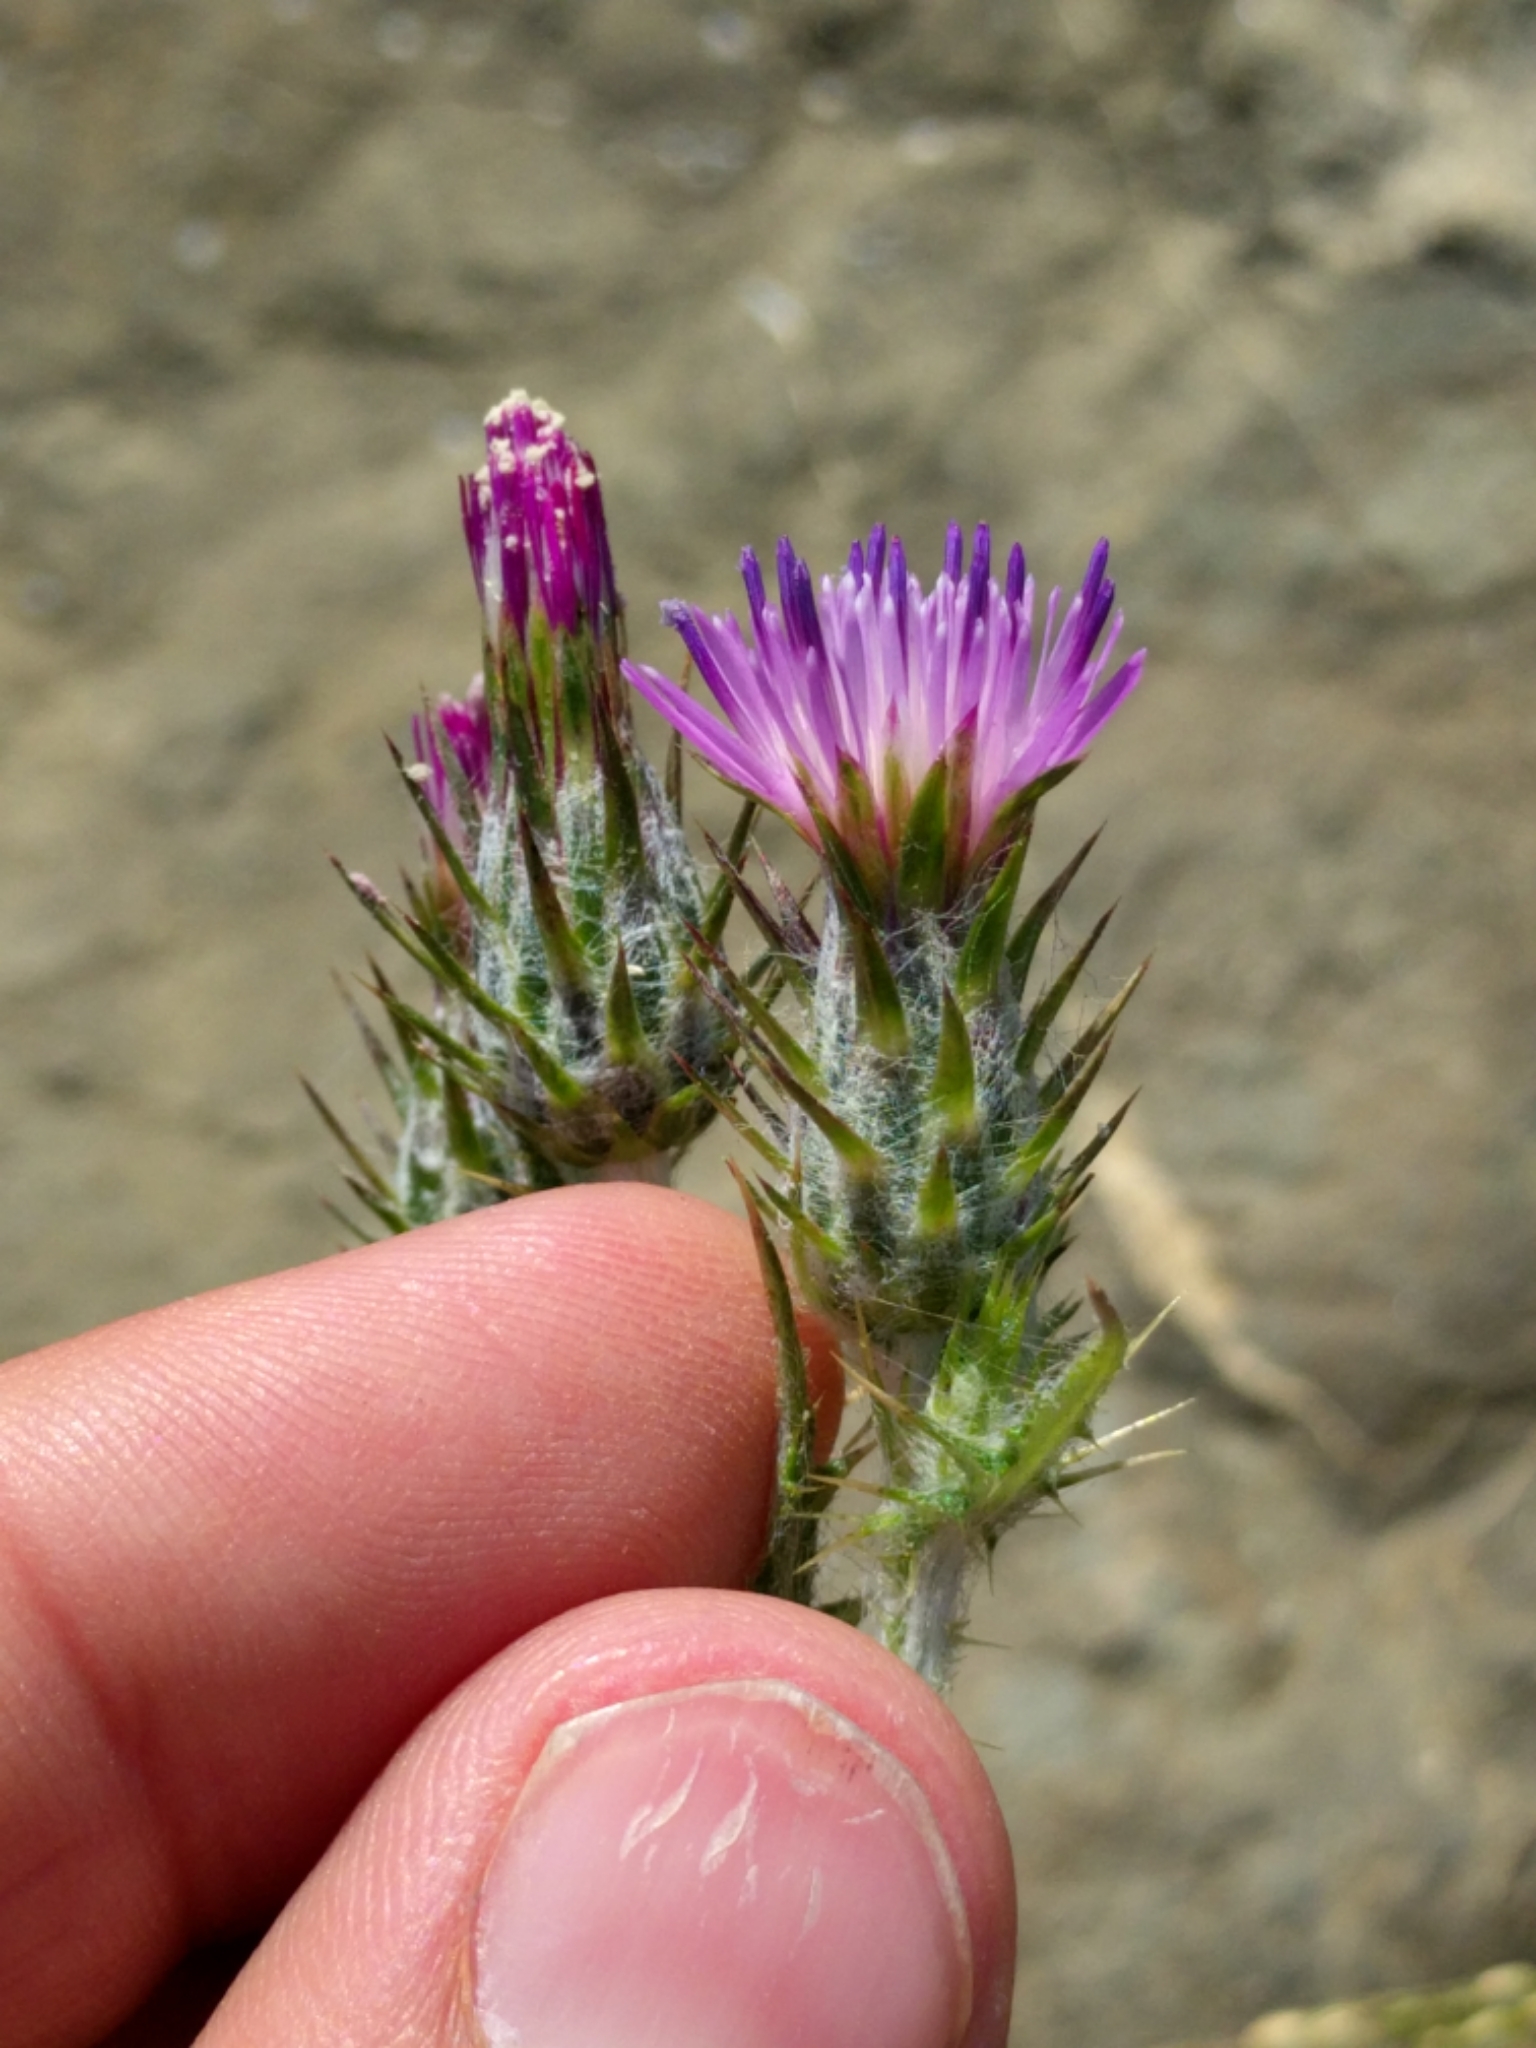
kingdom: Plantae
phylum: Tracheophyta
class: Magnoliopsida
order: Asterales
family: Asteraceae
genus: Carduus
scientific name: Carduus pycnocephalus
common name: Plymouth thistle
